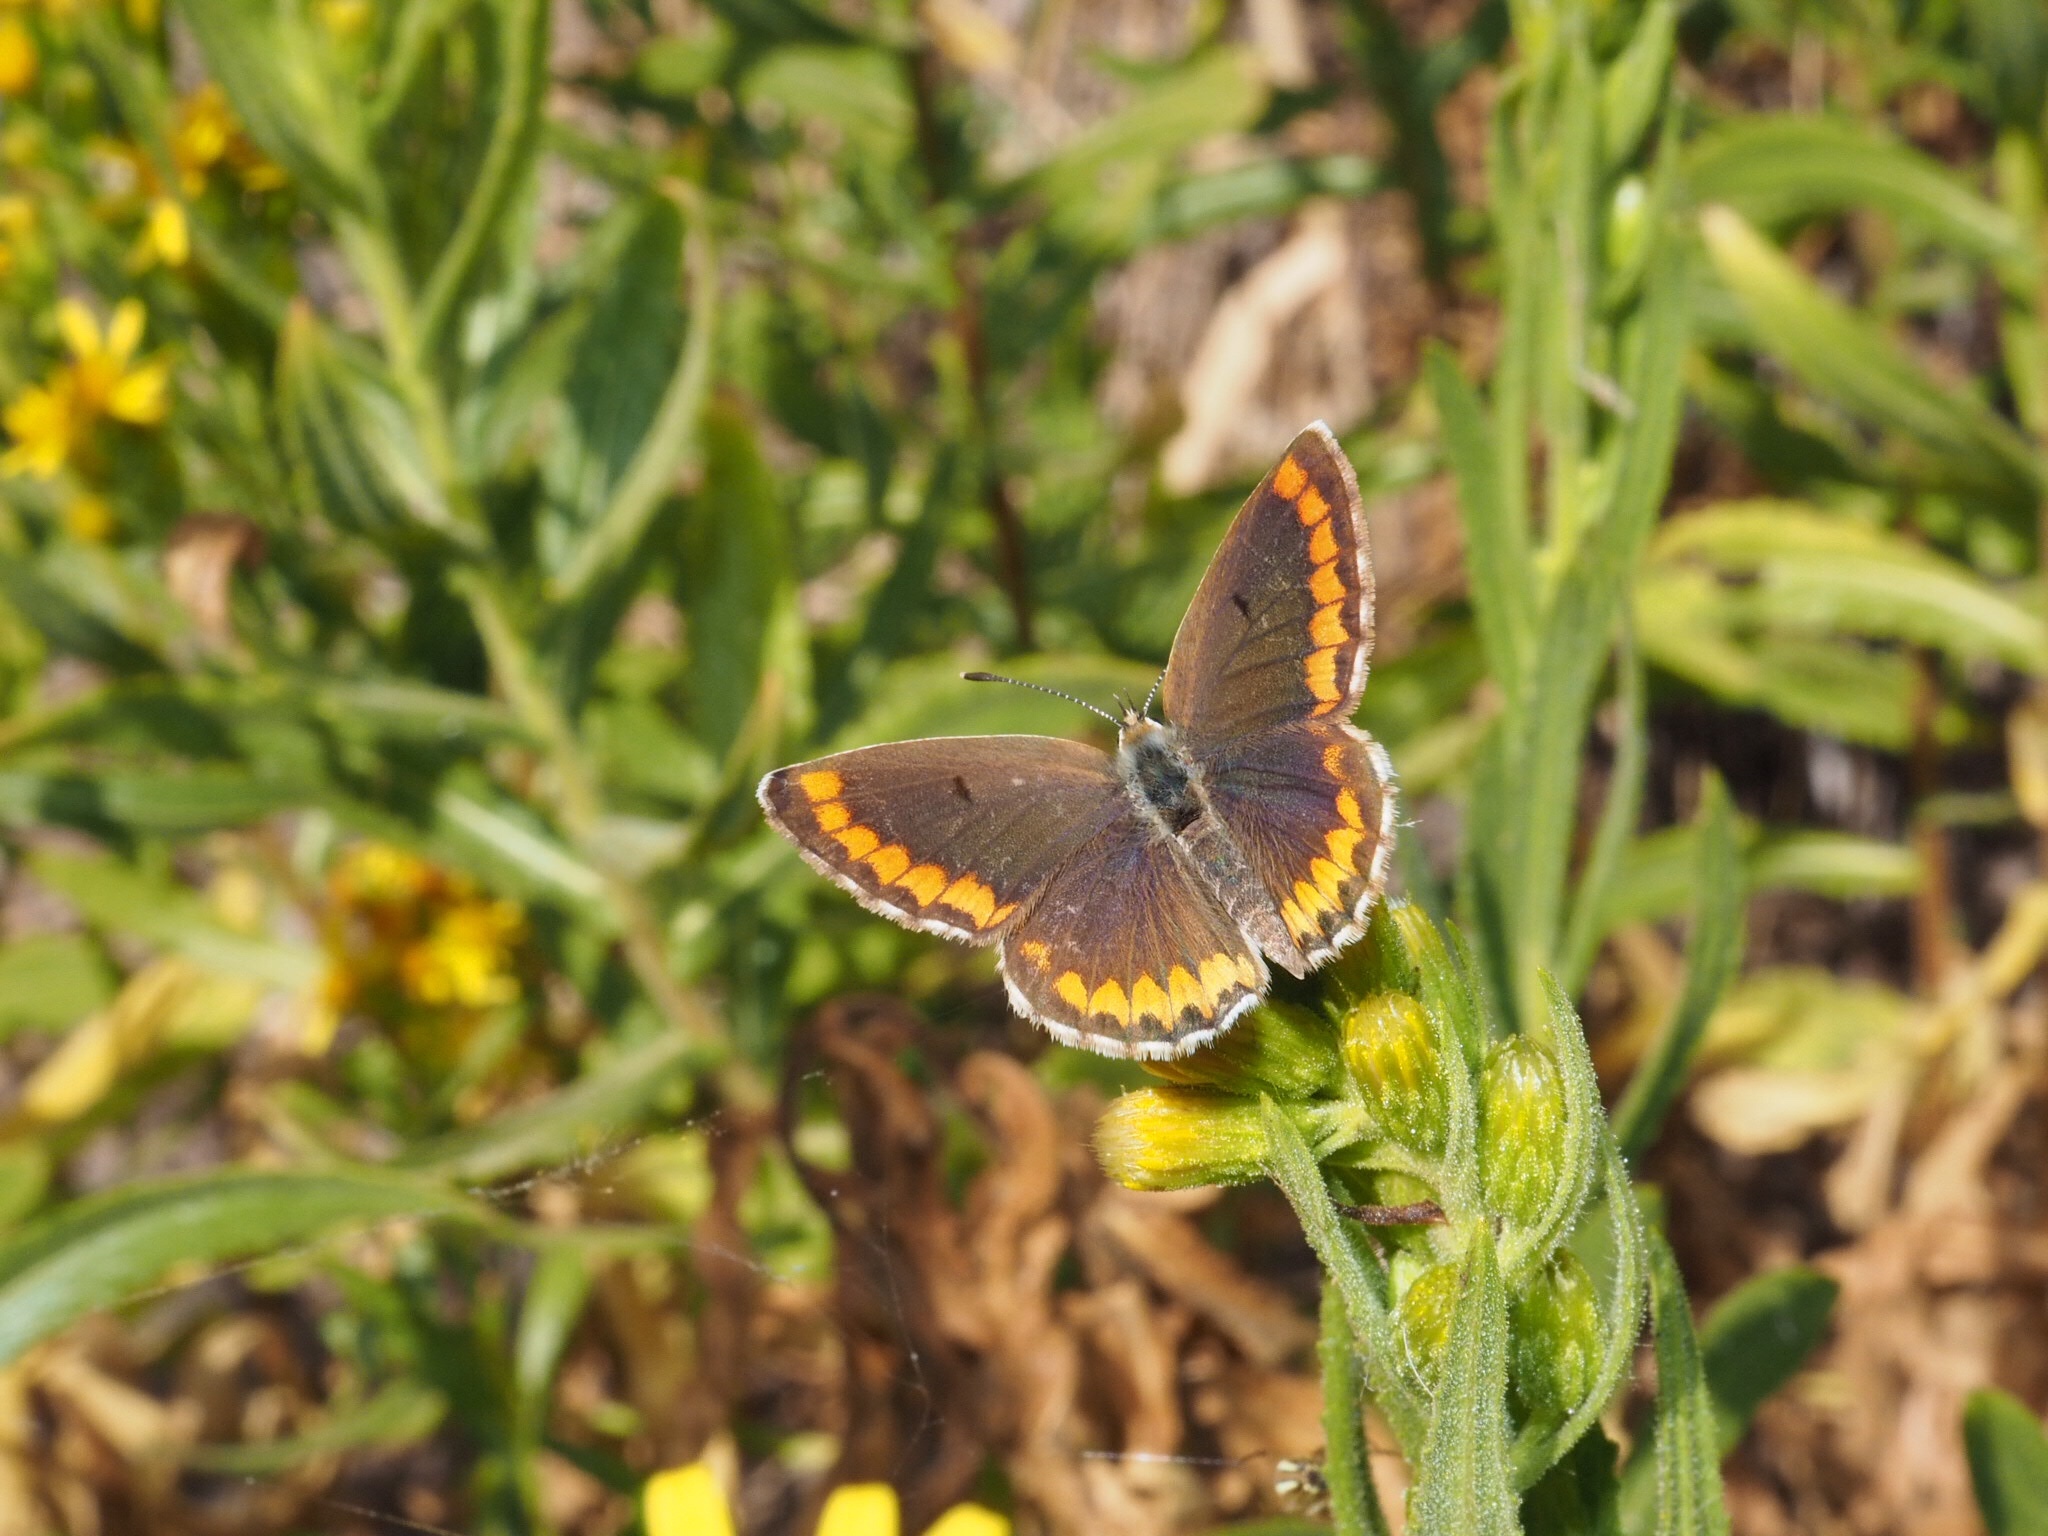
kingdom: Animalia
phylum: Arthropoda
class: Insecta
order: Lepidoptera
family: Lycaenidae
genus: Aricia
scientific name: Aricia cramera
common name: Eschscholtz´s brown  argus
